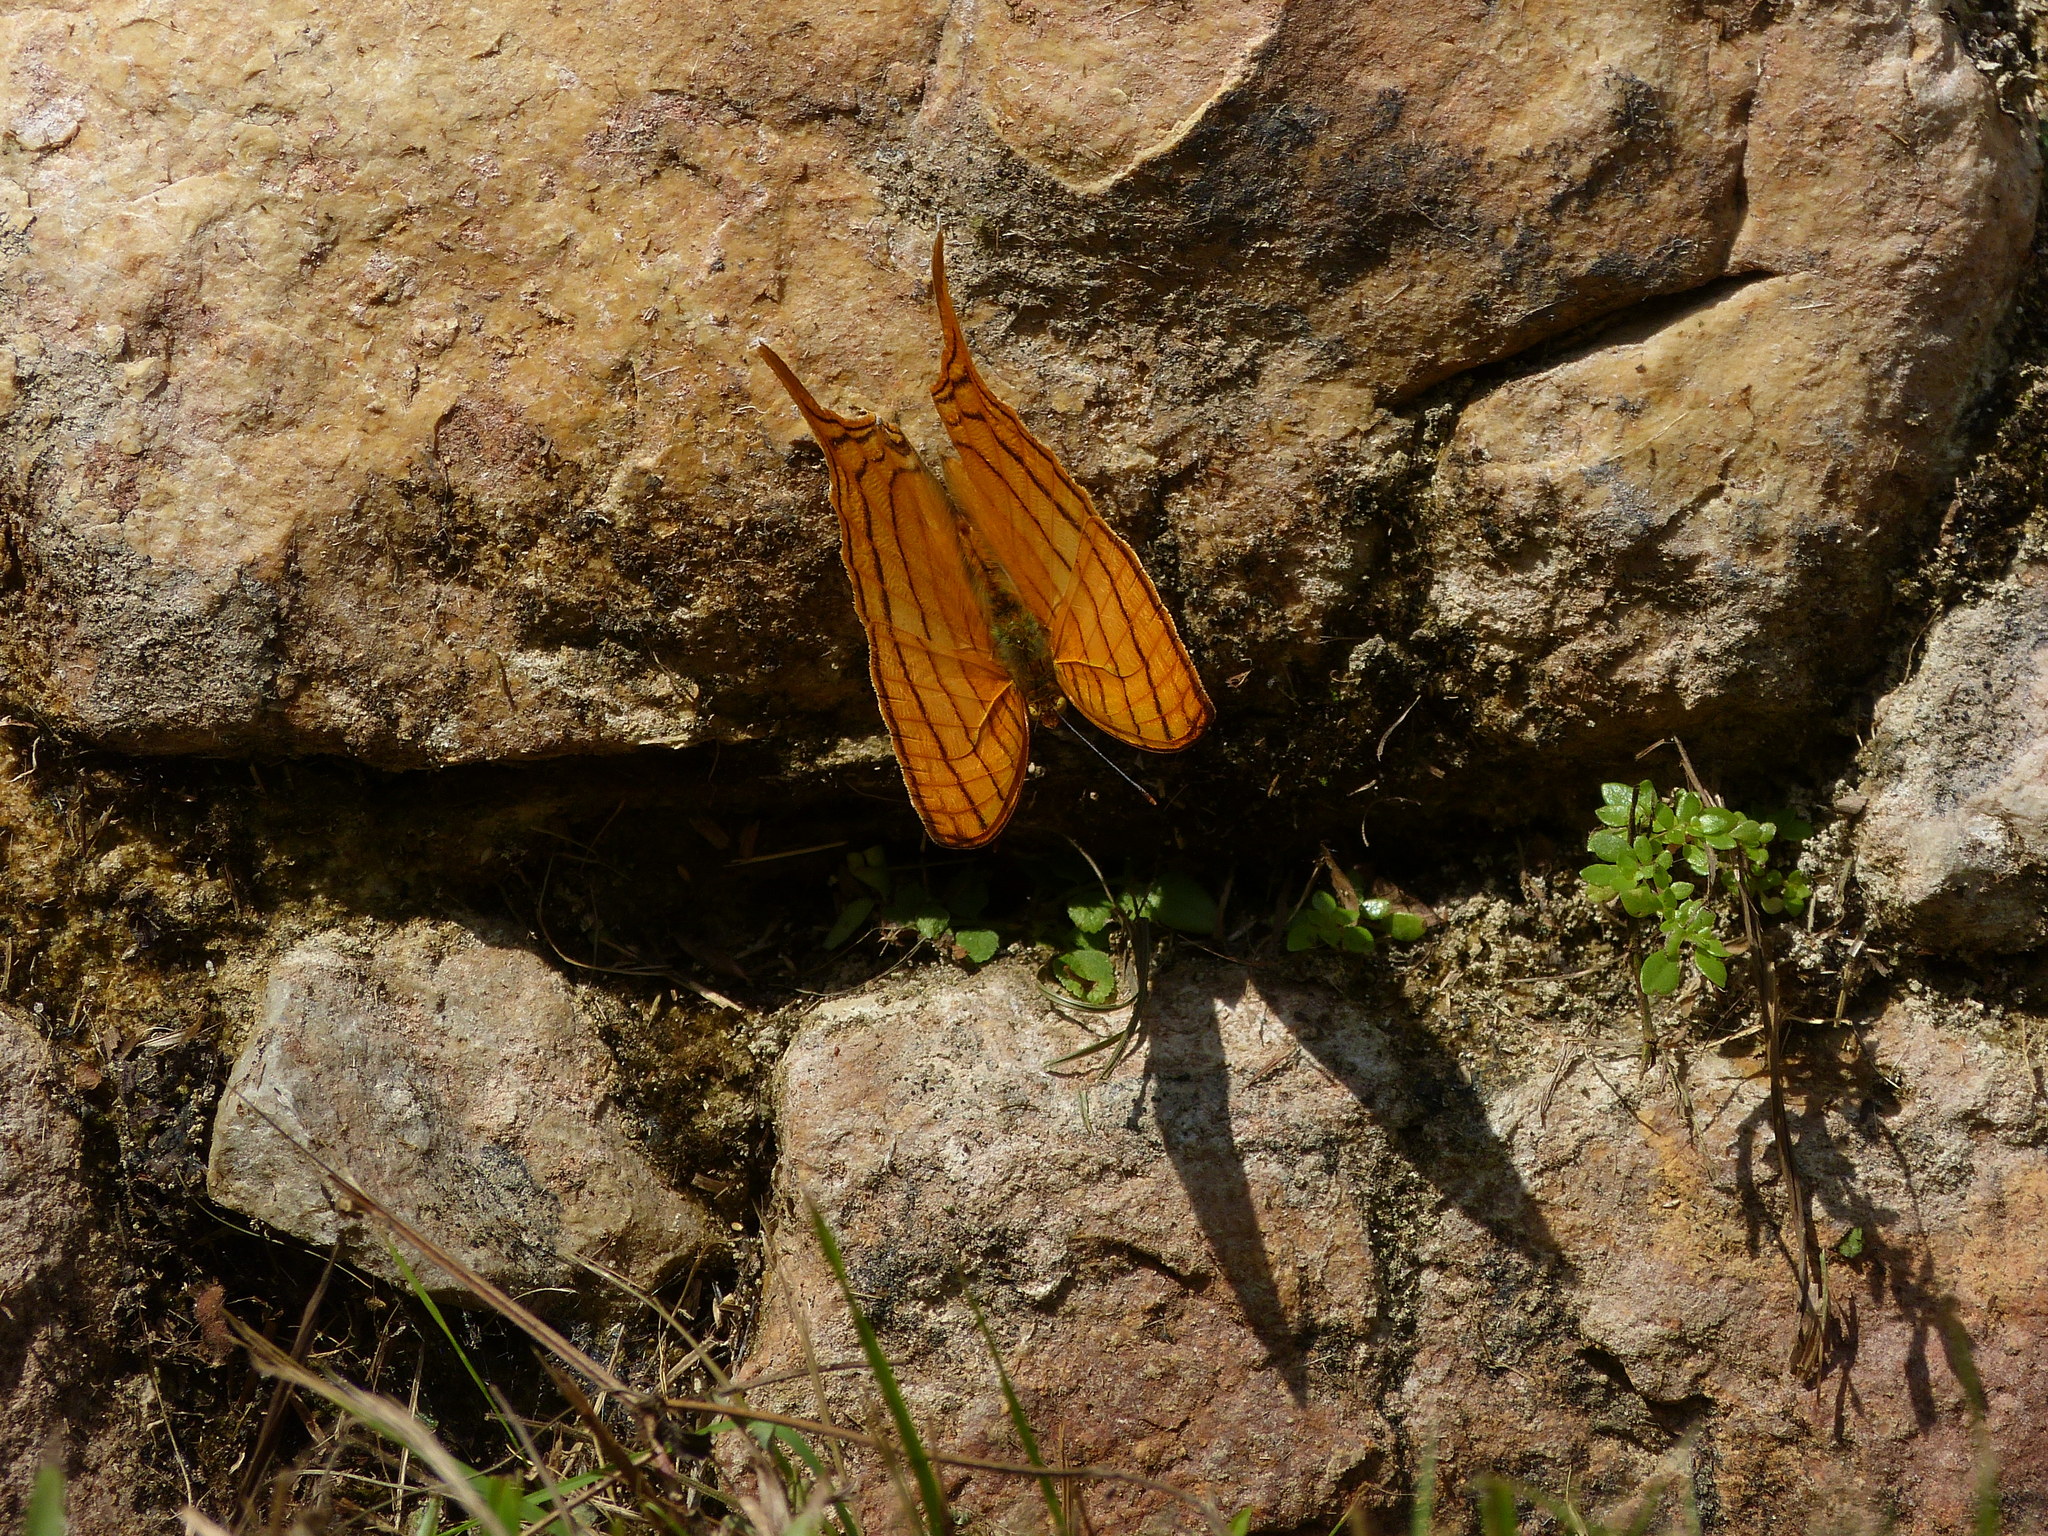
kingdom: Animalia
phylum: Arthropoda
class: Insecta
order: Lepidoptera
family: Nymphalidae
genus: Marpesia
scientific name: Marpesia harmonia
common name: Pale daggerwing
